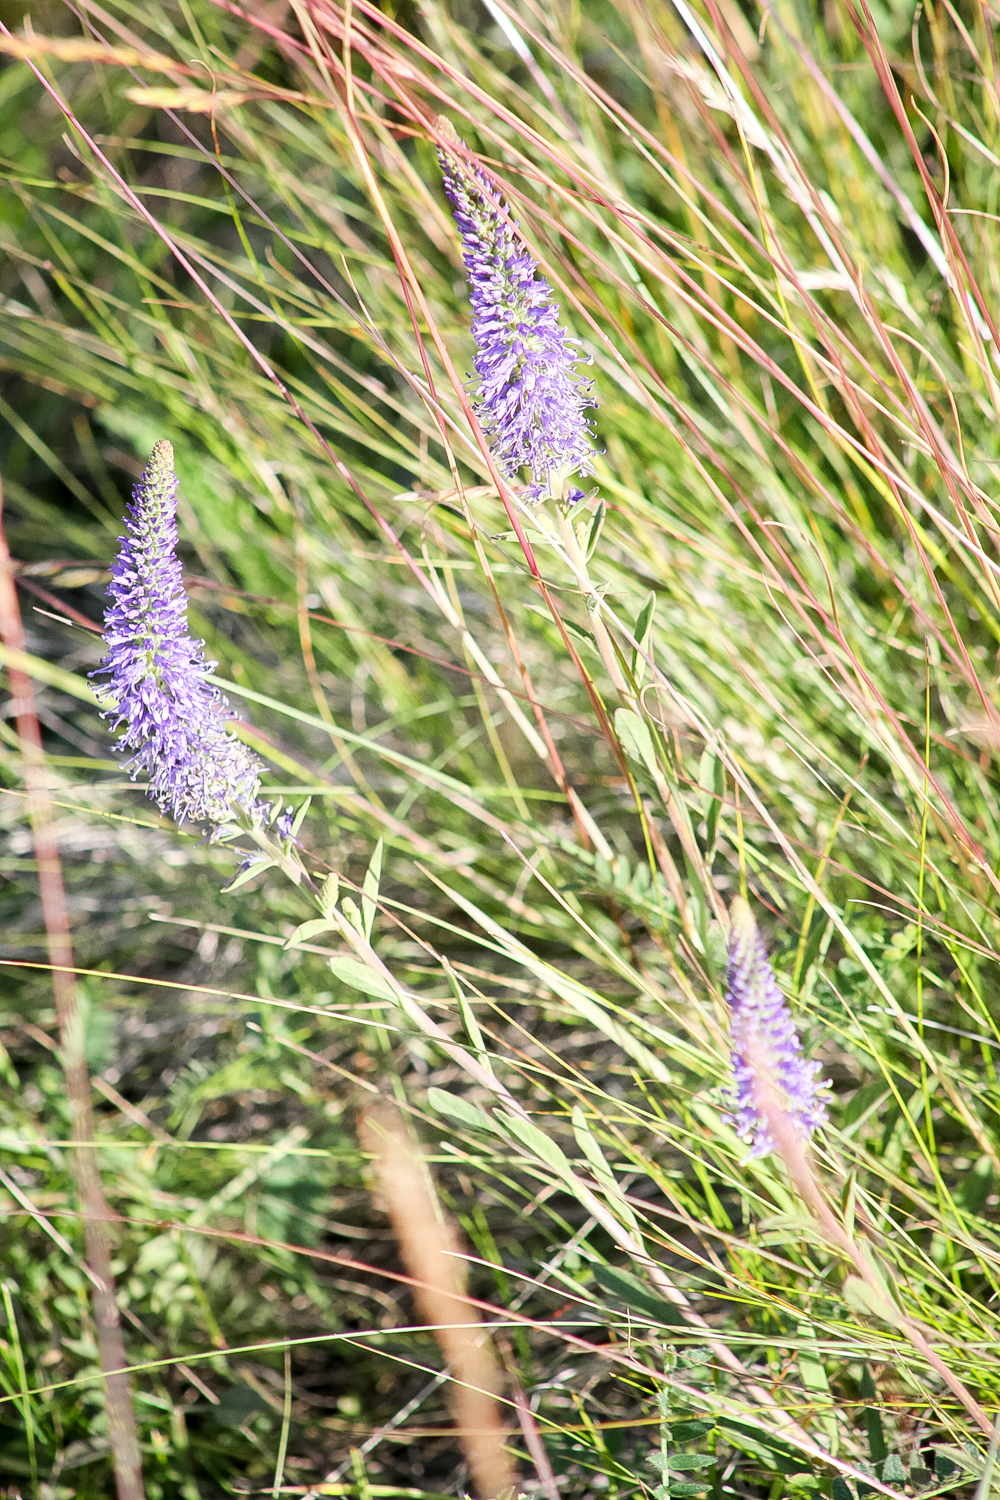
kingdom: Plantae
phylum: Tracheophyta
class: Magnoliopsida
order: Lamiales
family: Plantaginaceae
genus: Veronica
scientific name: Veronica spicata
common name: Spiked speedwell
